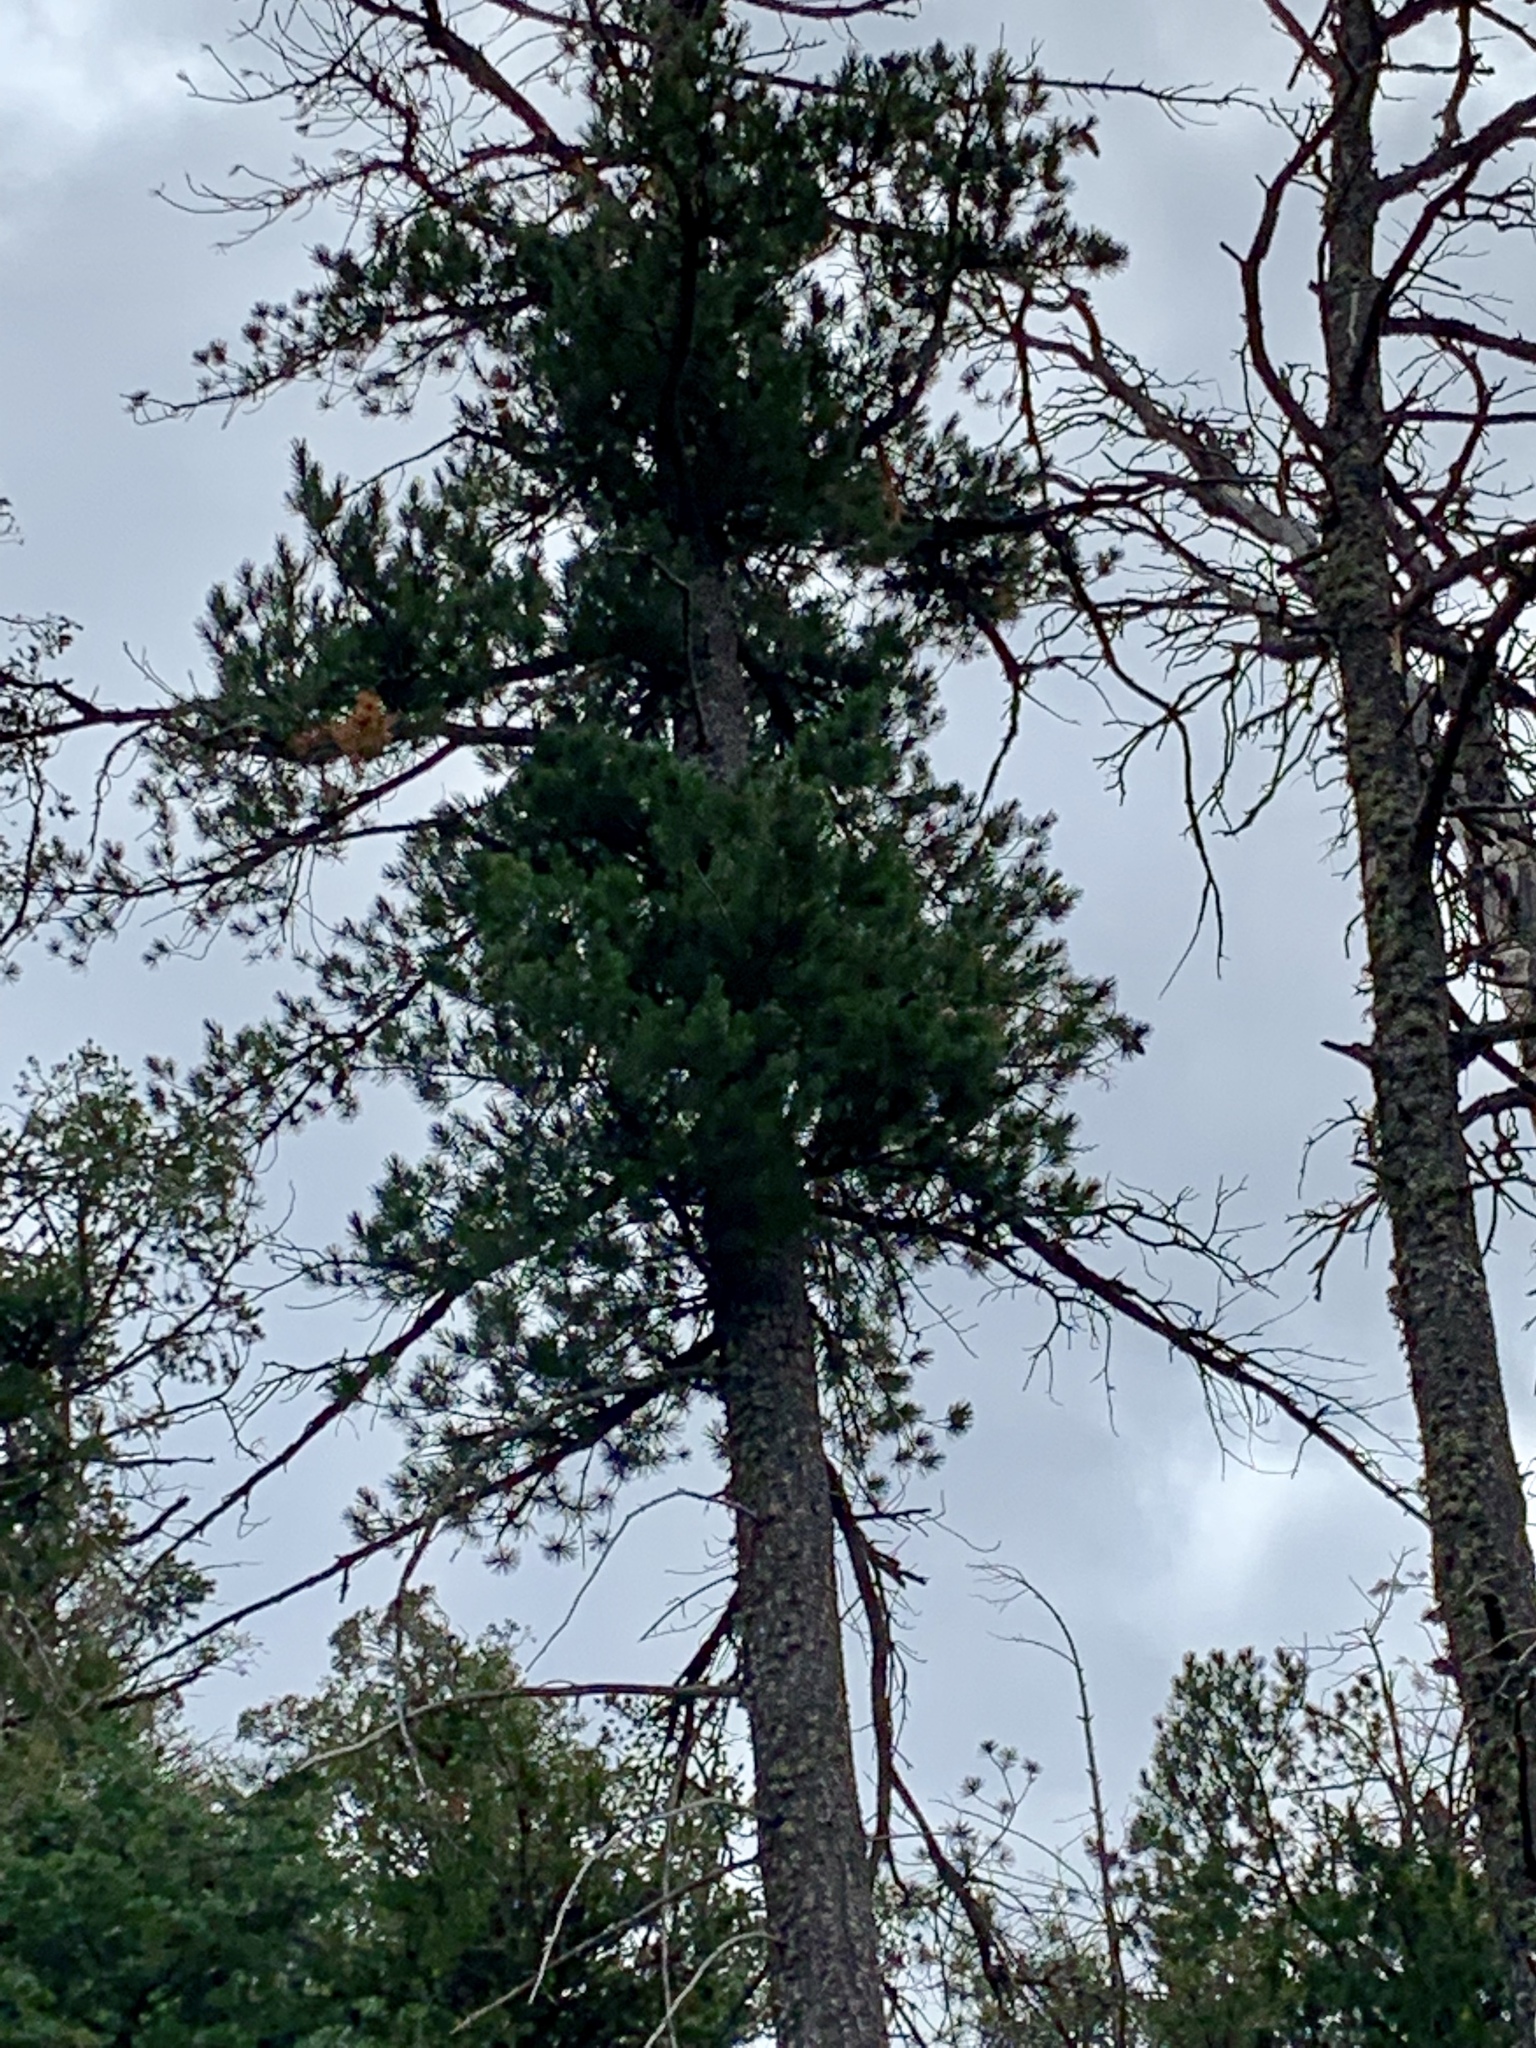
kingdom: Plantae
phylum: Tracheophyta
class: Pinopsida
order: Pinales
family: Pinaceae
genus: Pinus
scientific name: Pinus strobiformis
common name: Southwestern white pine
